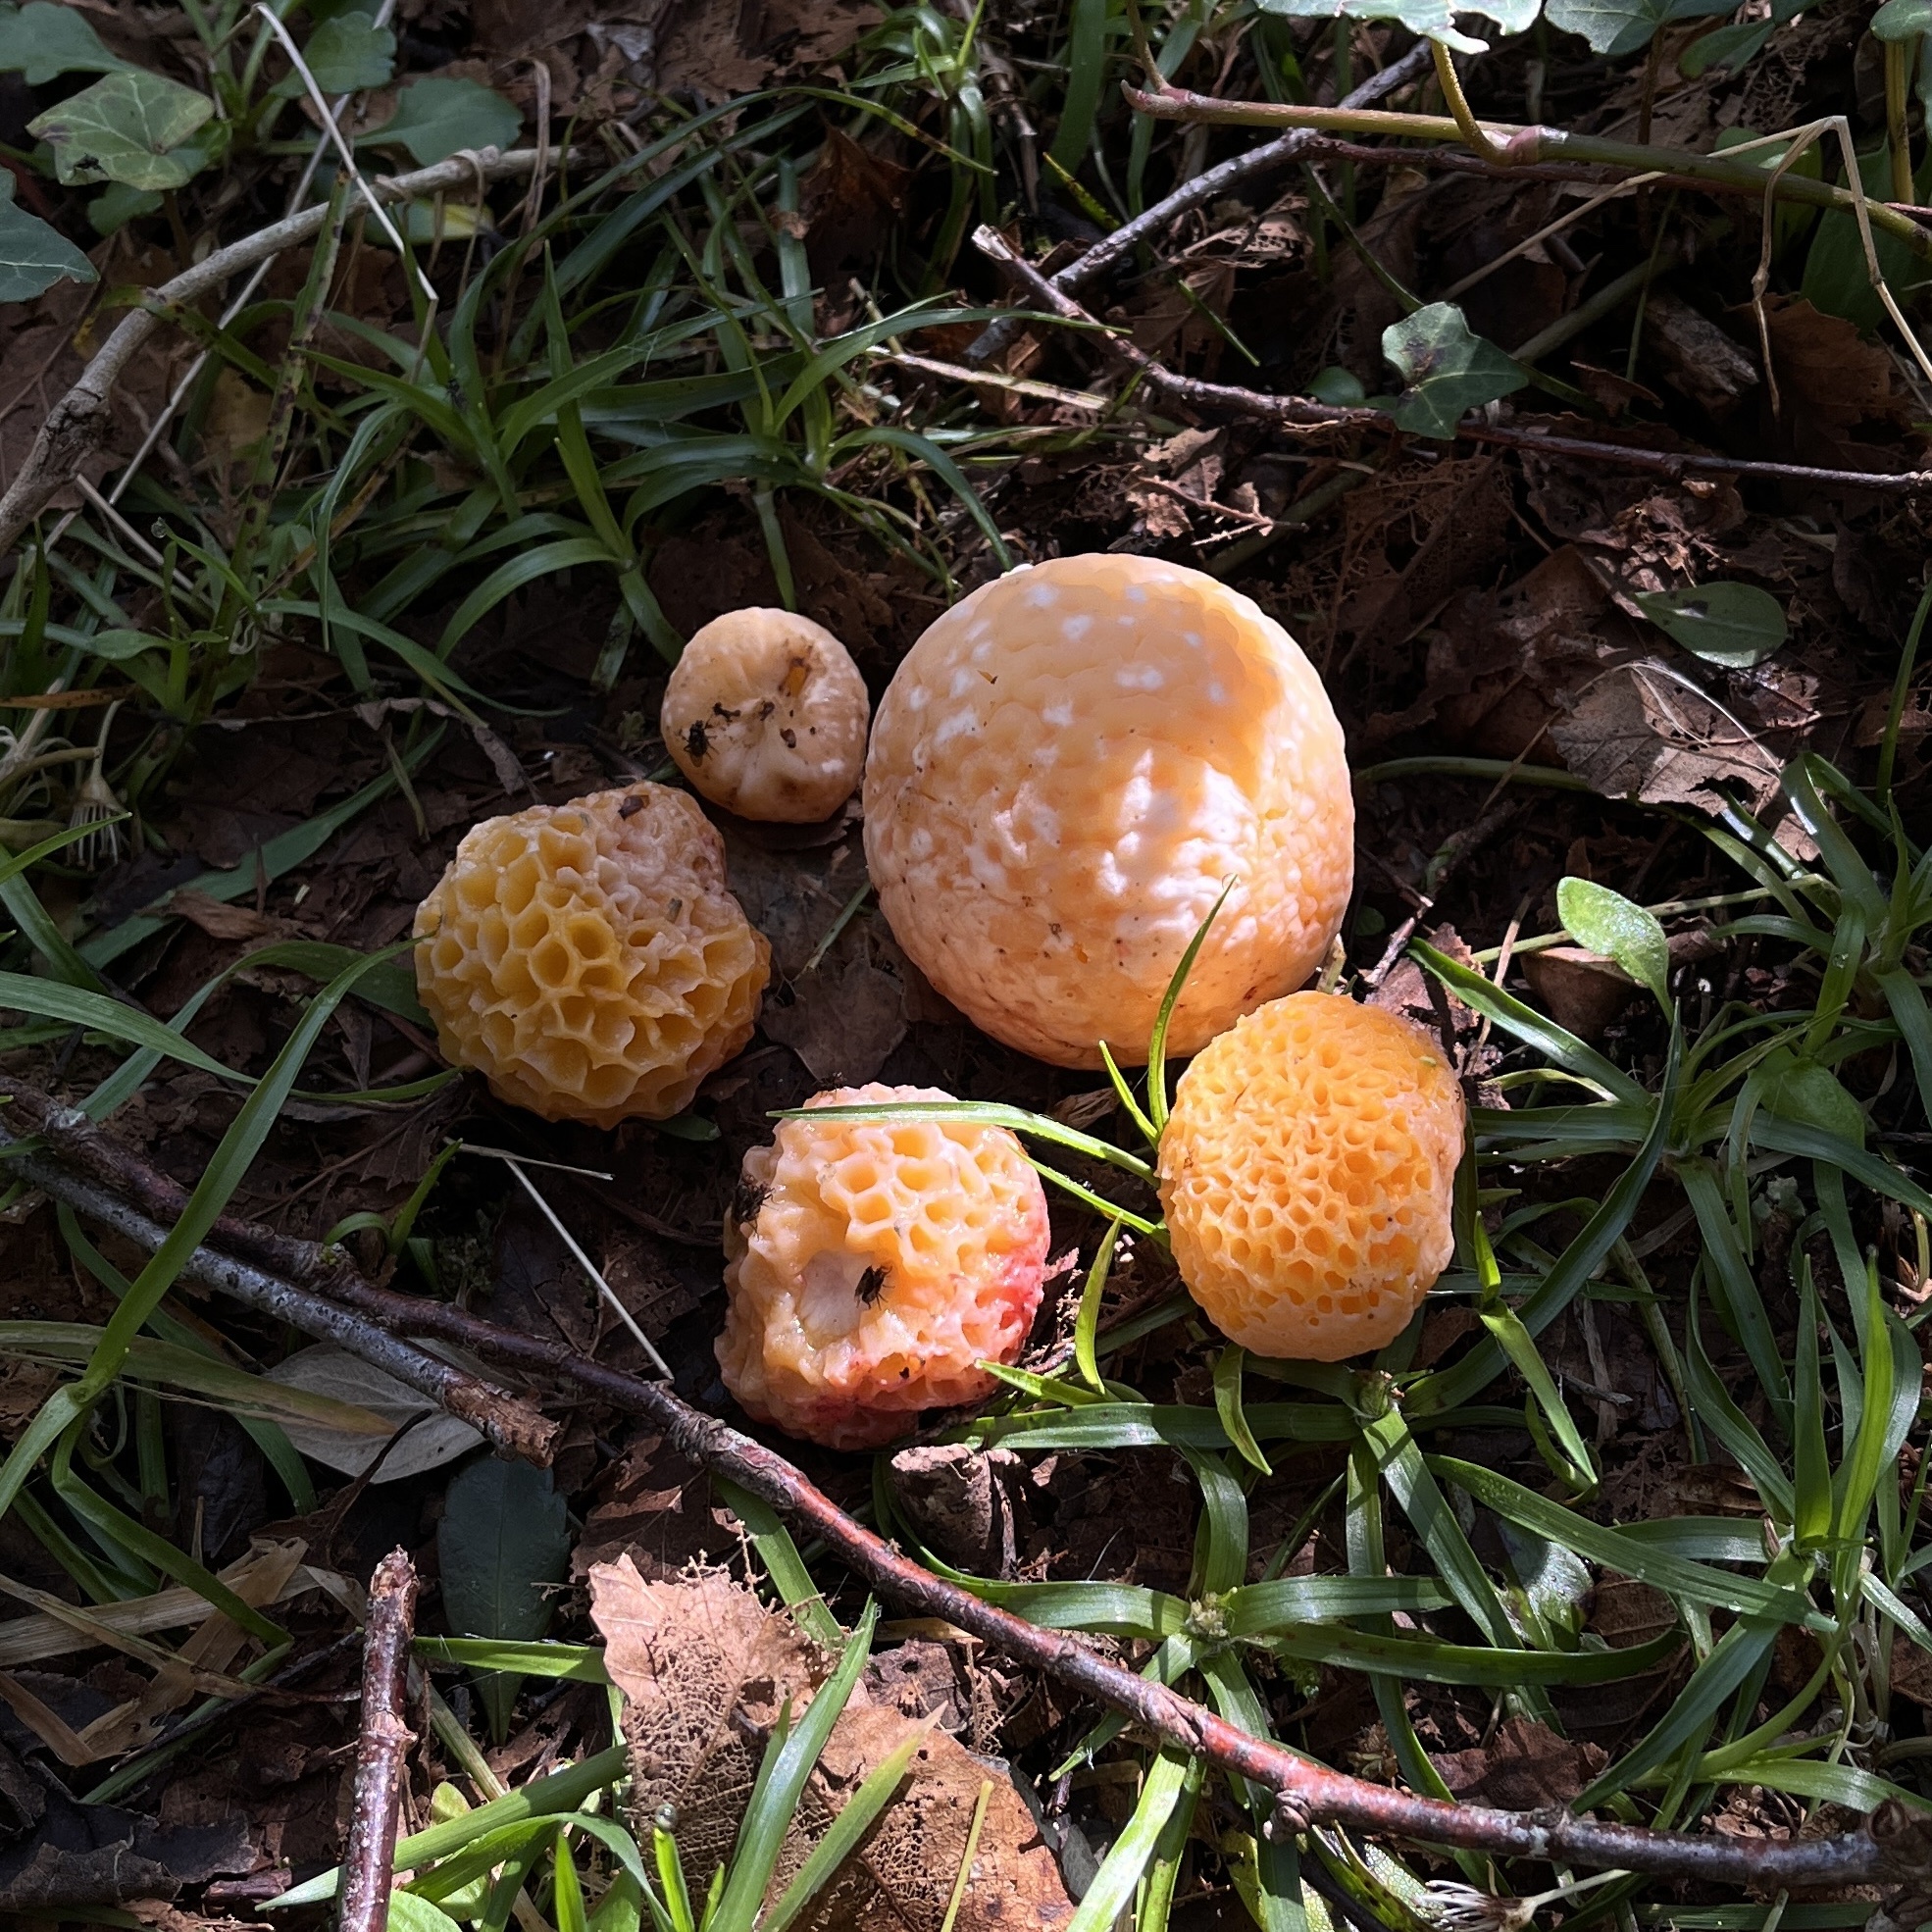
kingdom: Fungi
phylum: Ascomycota
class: Leotiomycetes
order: Cyttariales
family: Cyttariaceae
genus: Cyttaria
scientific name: Cyttaria espinosae
